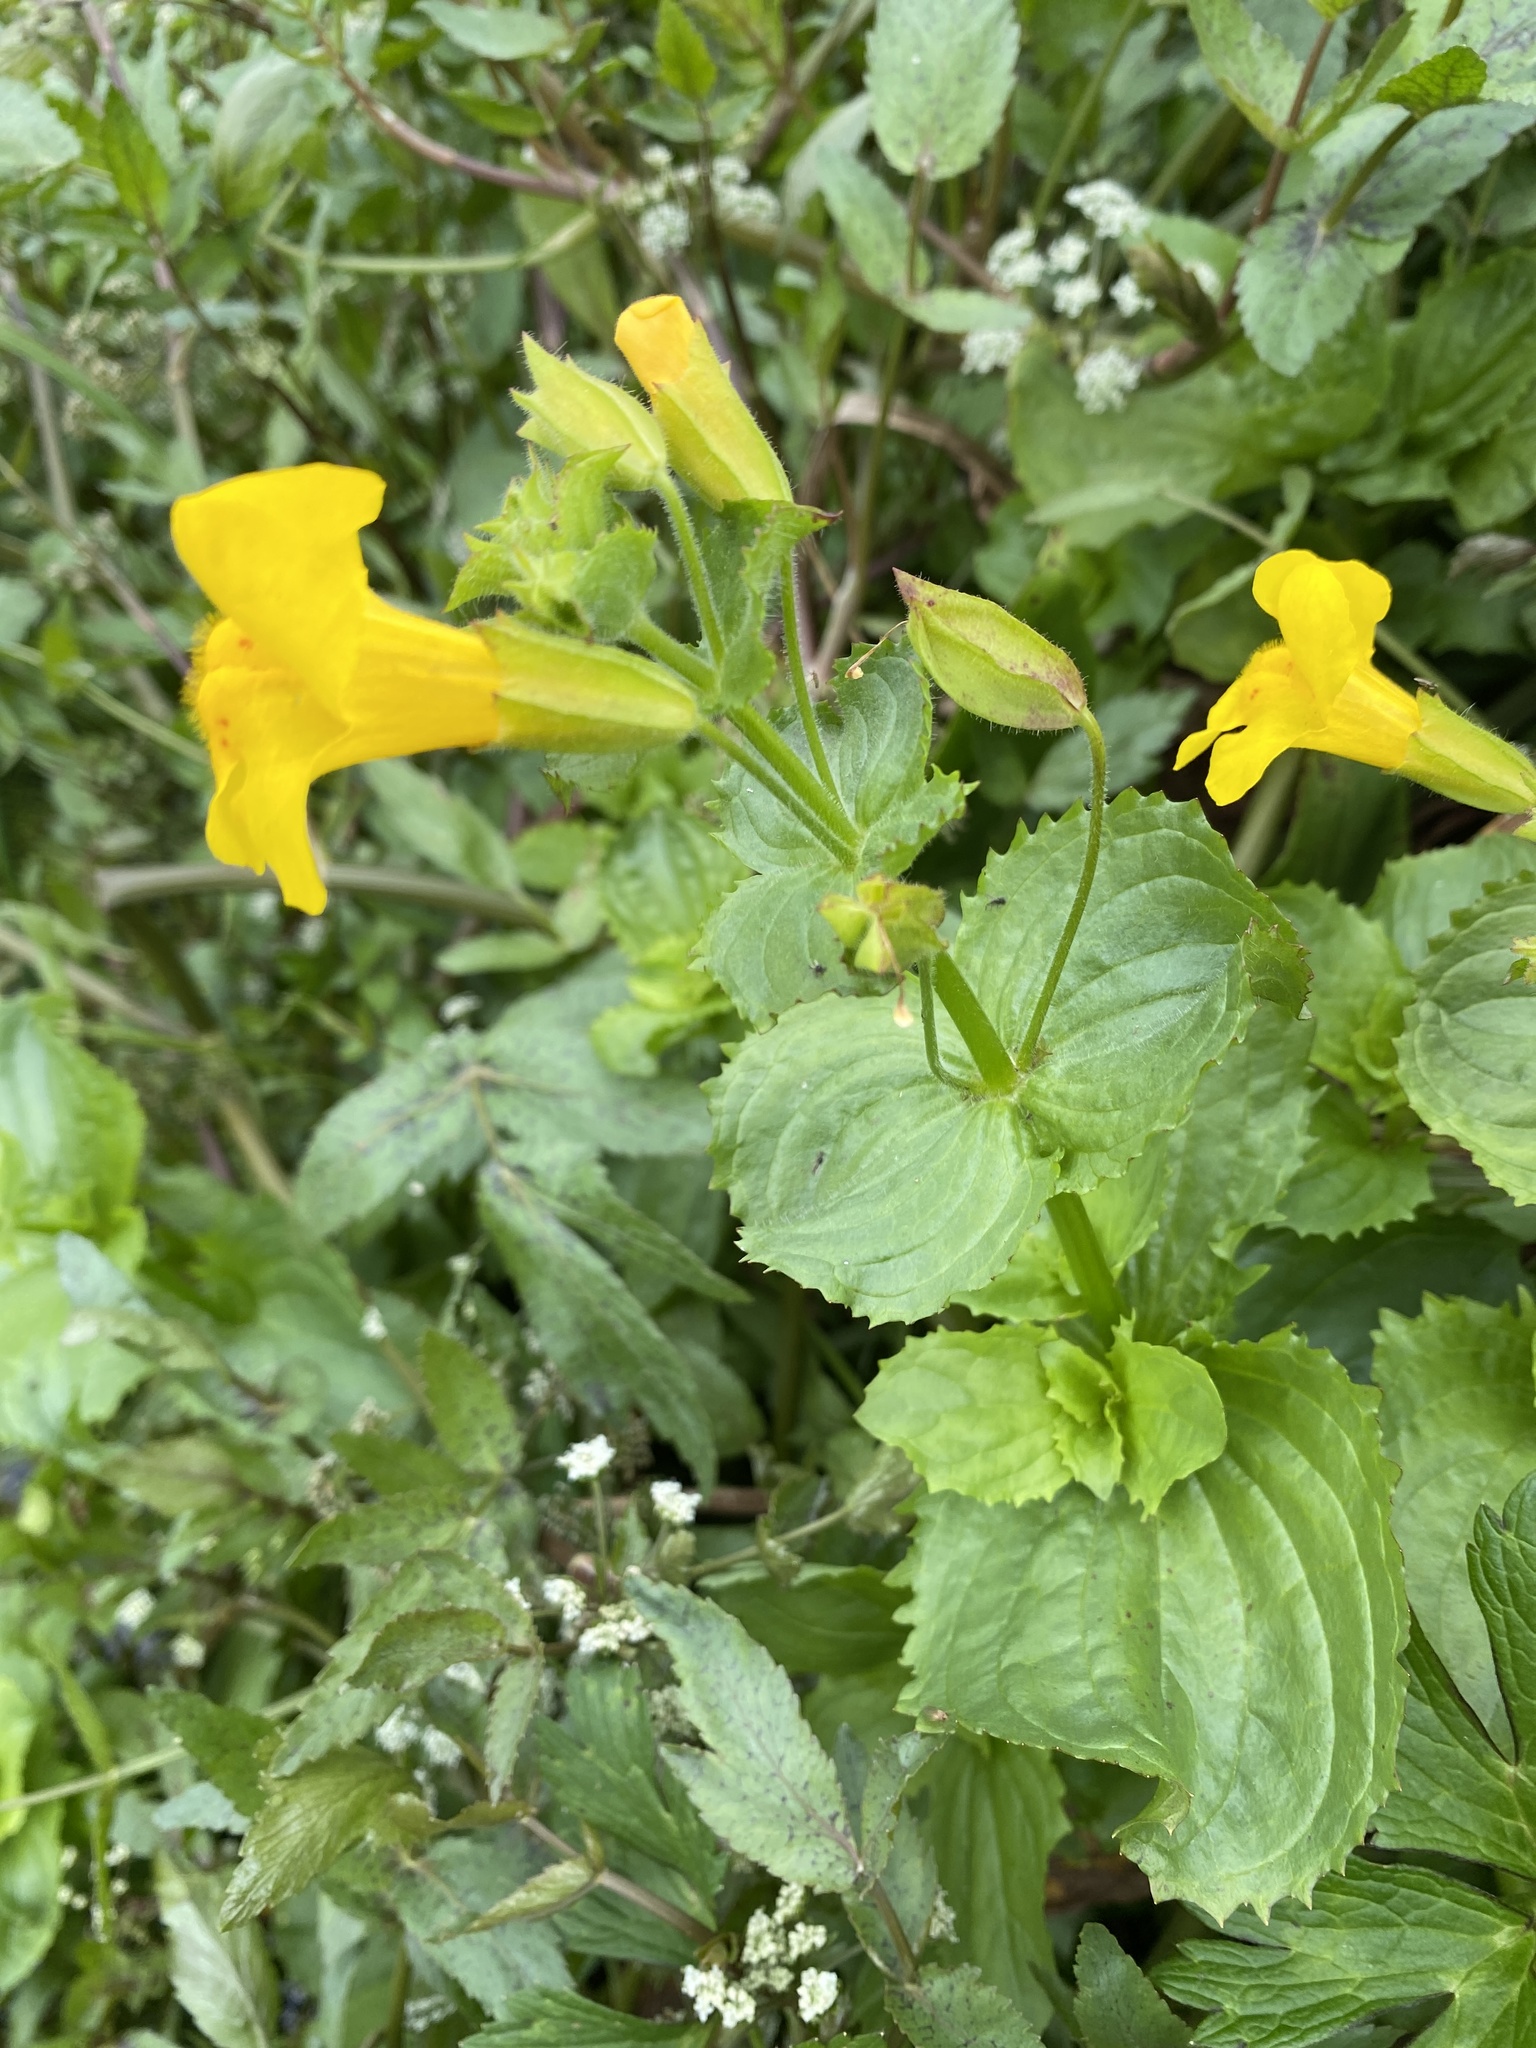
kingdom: Plantae
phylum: Tracheophyta
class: Magnoliopsida
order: Lamiales
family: Phrymaceae
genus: Erythranthe
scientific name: Erythranthe guttata
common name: Monkeyflower
